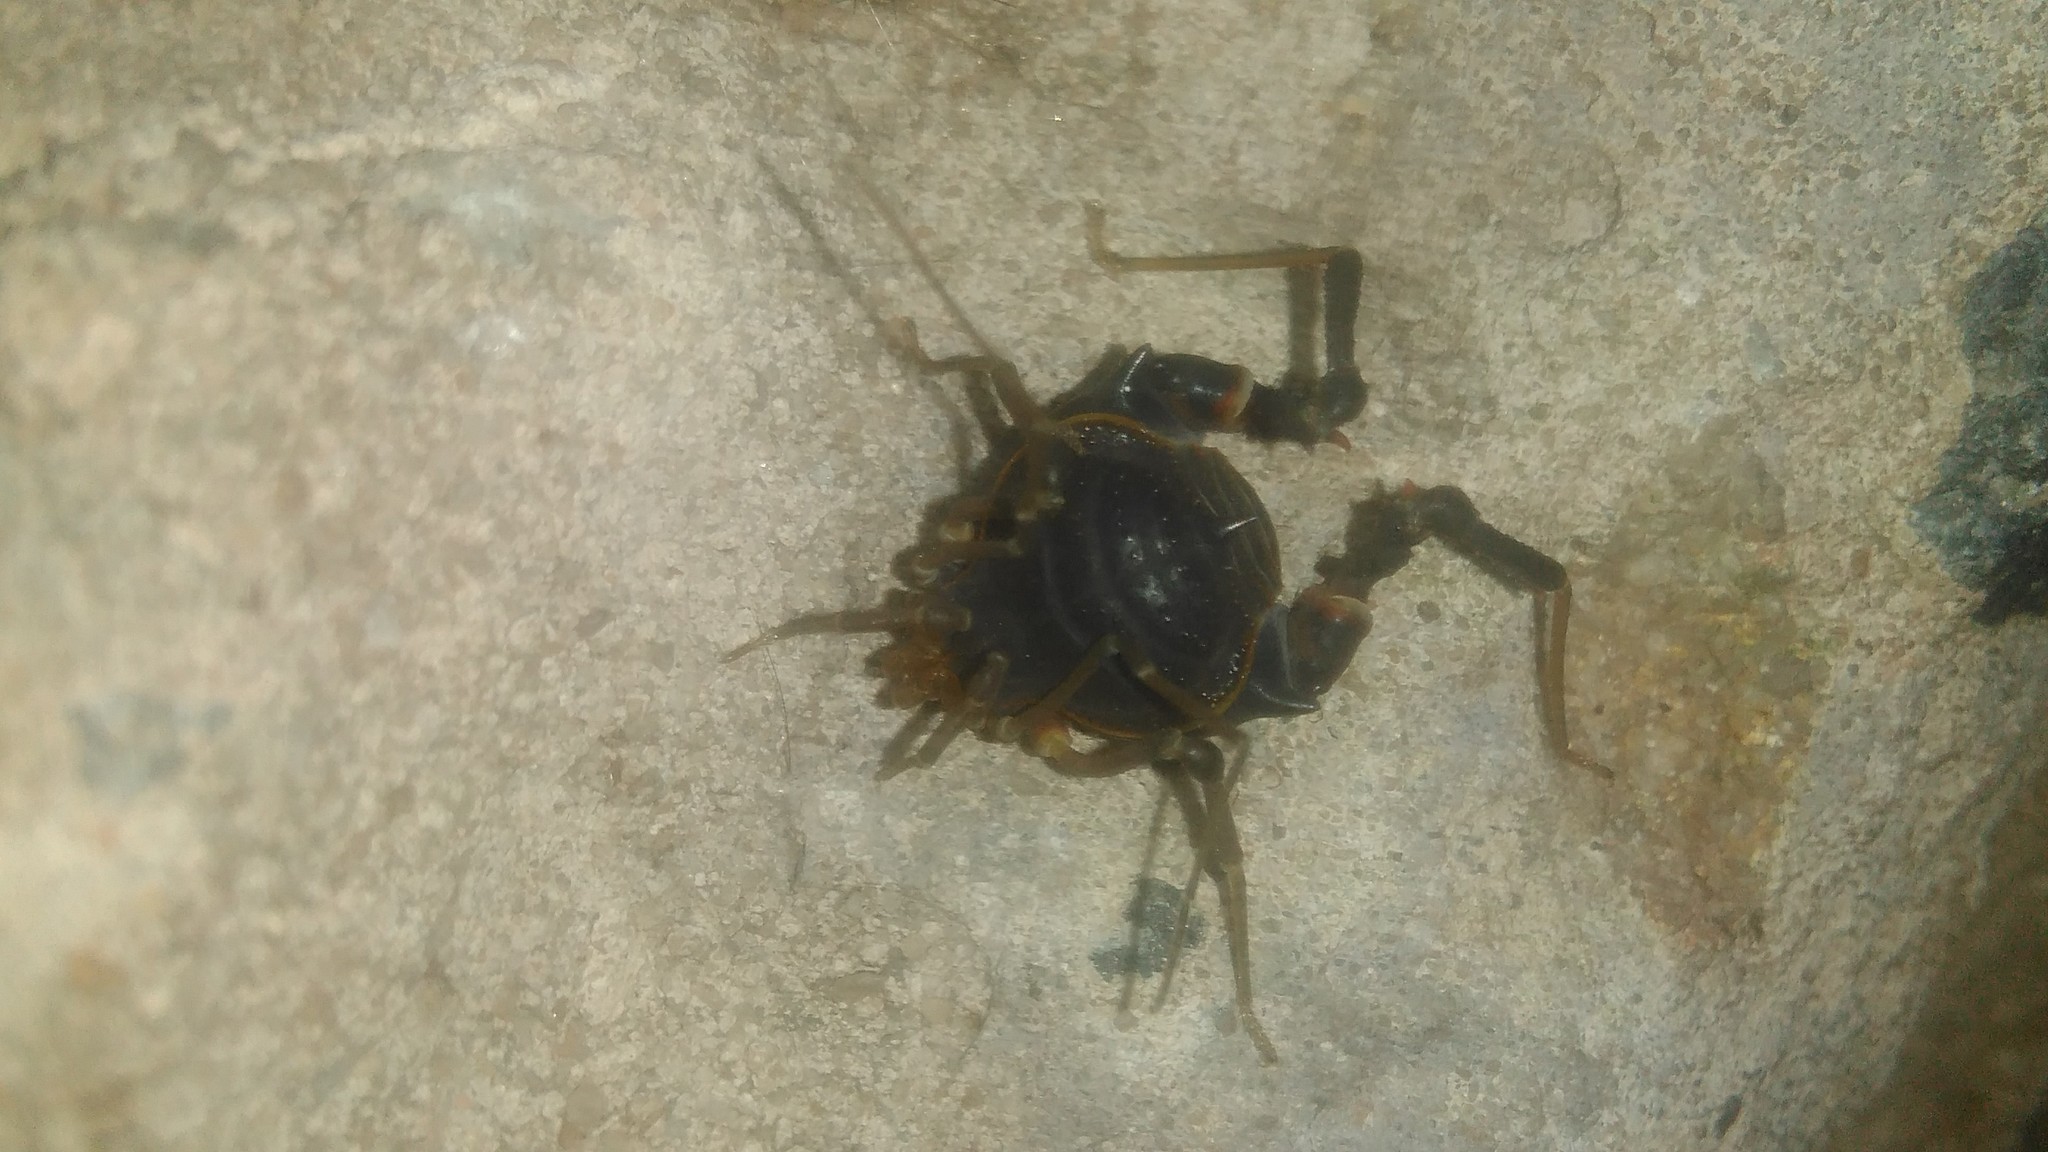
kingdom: Animalia
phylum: Arthropoda
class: Arachnida
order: Opiliones
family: Gonyleptidae
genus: Acanthopachylus
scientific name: Acanthopachylus robustus
